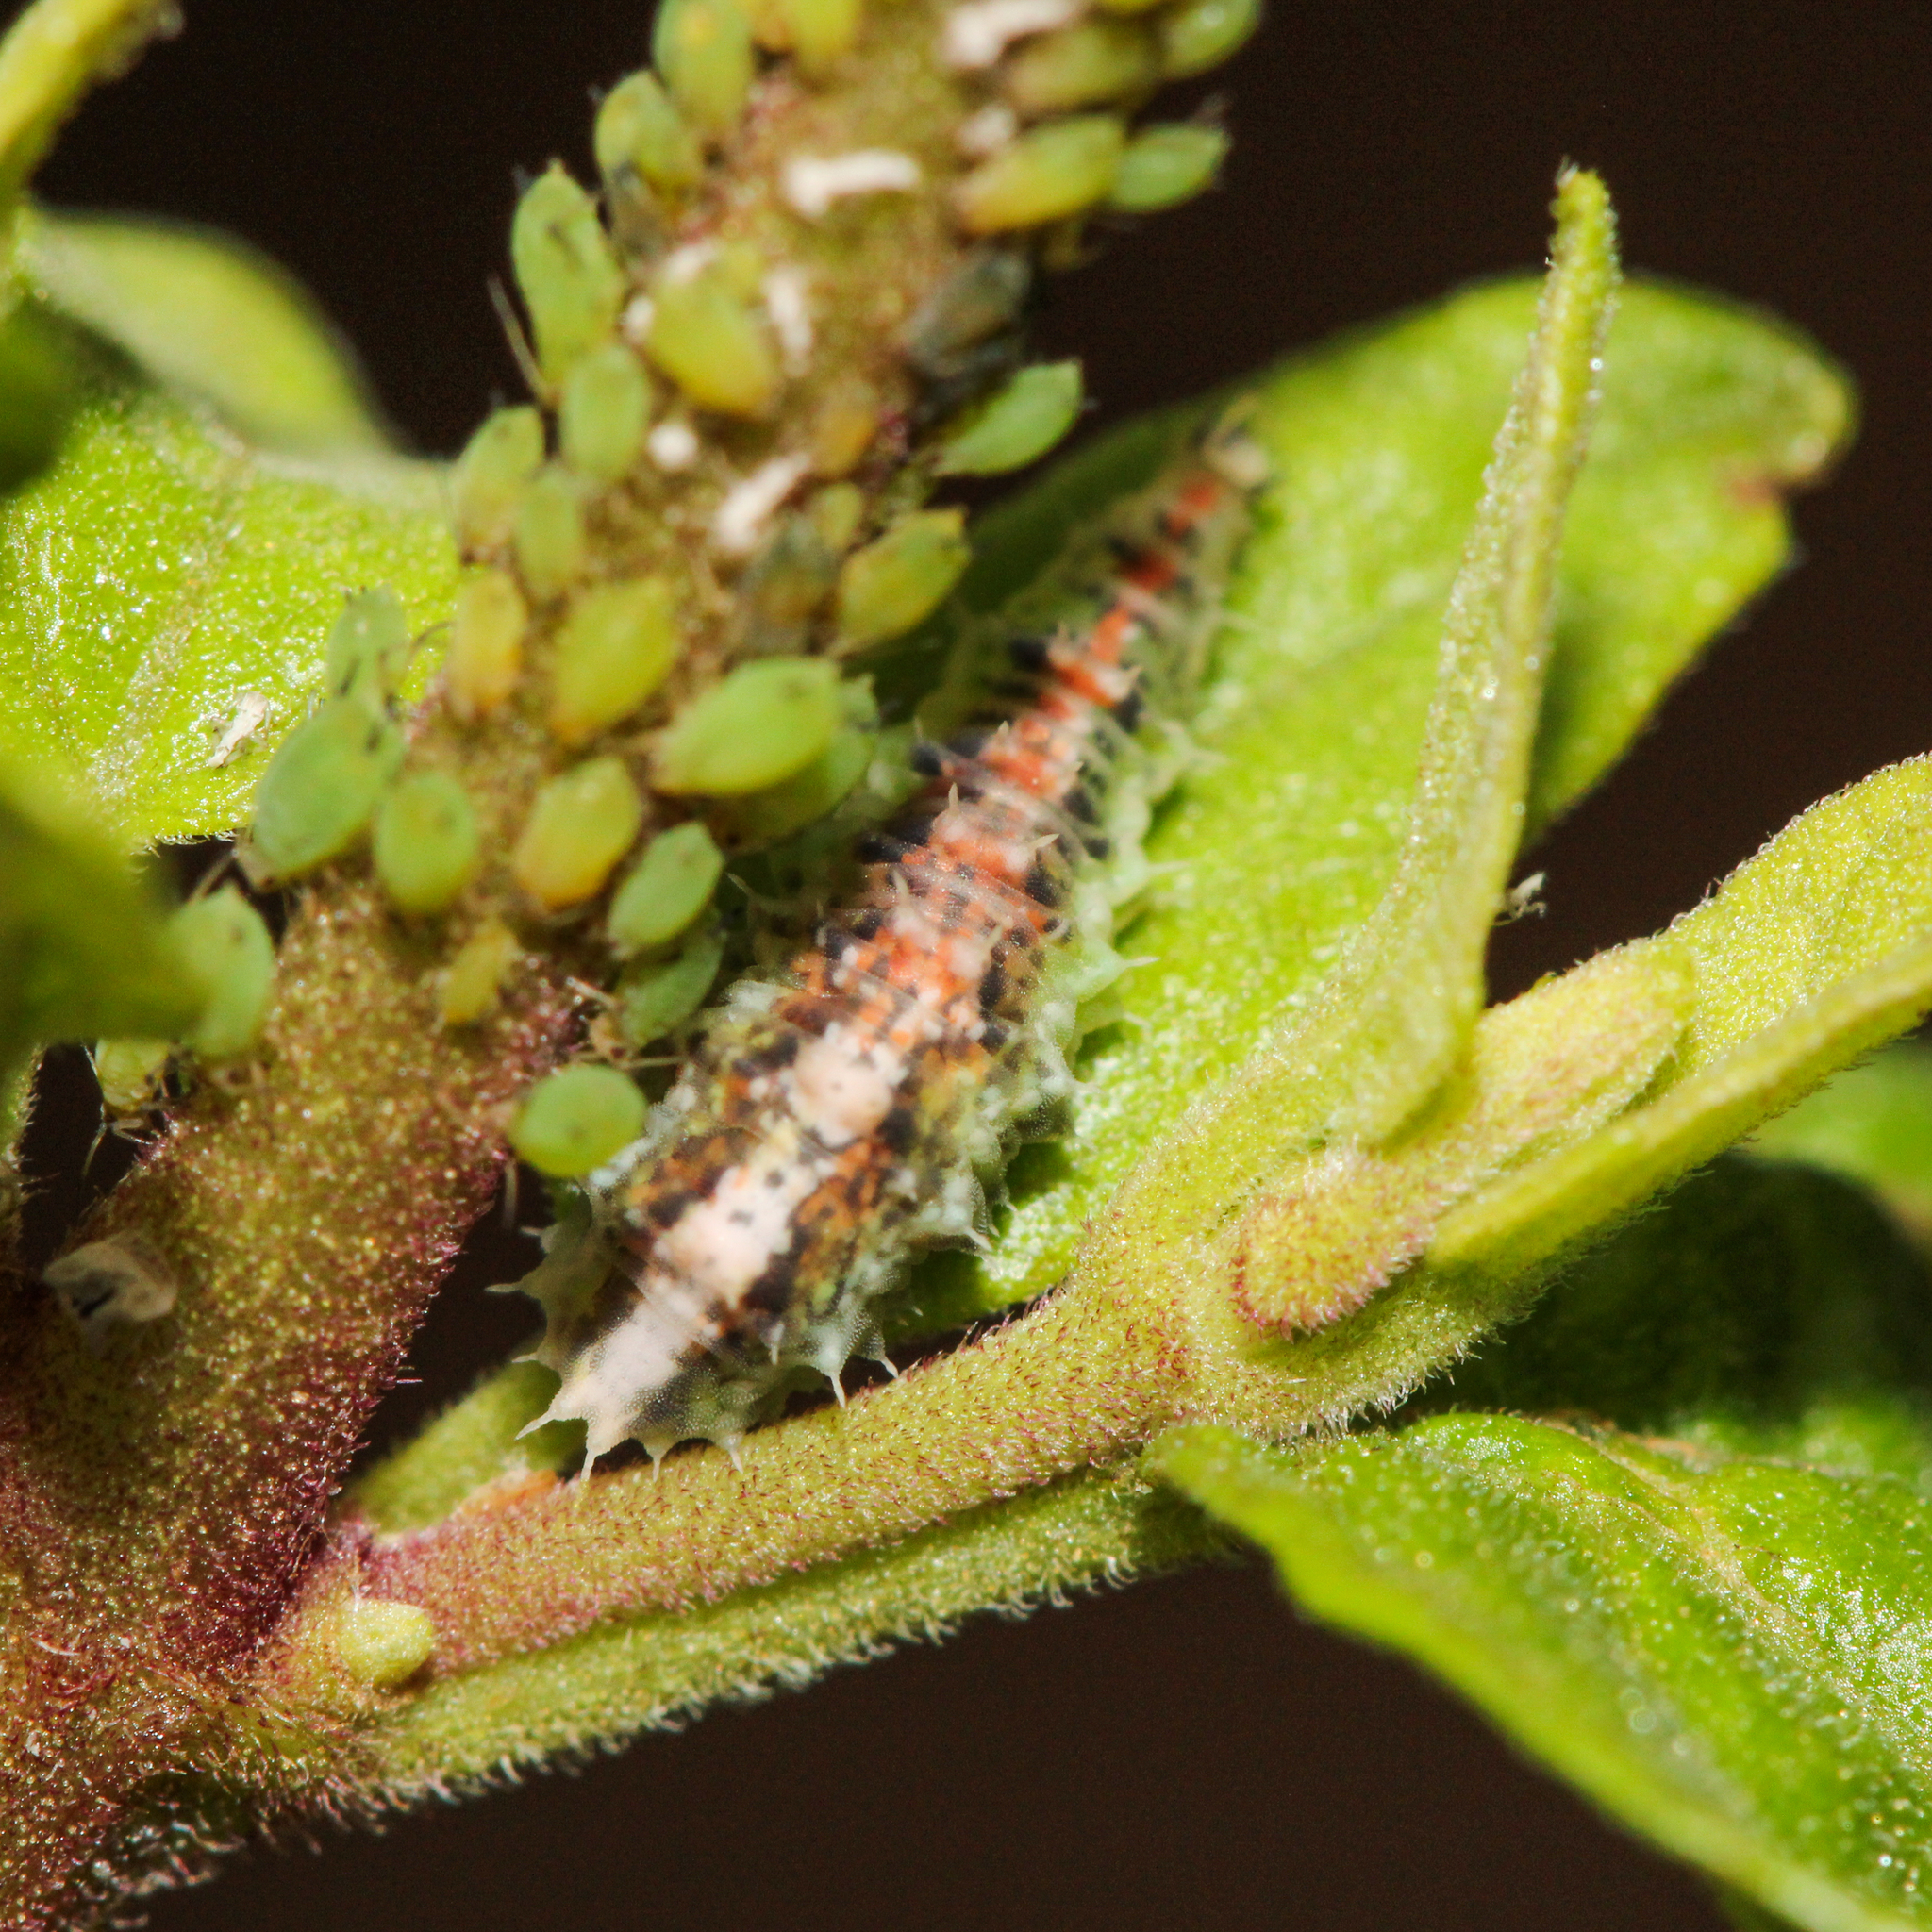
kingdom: Animalia
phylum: Arthropoda
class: Insecta
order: Diptera
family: Syrphidae
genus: Dioprosopa
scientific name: Dioprosopa clavatus
